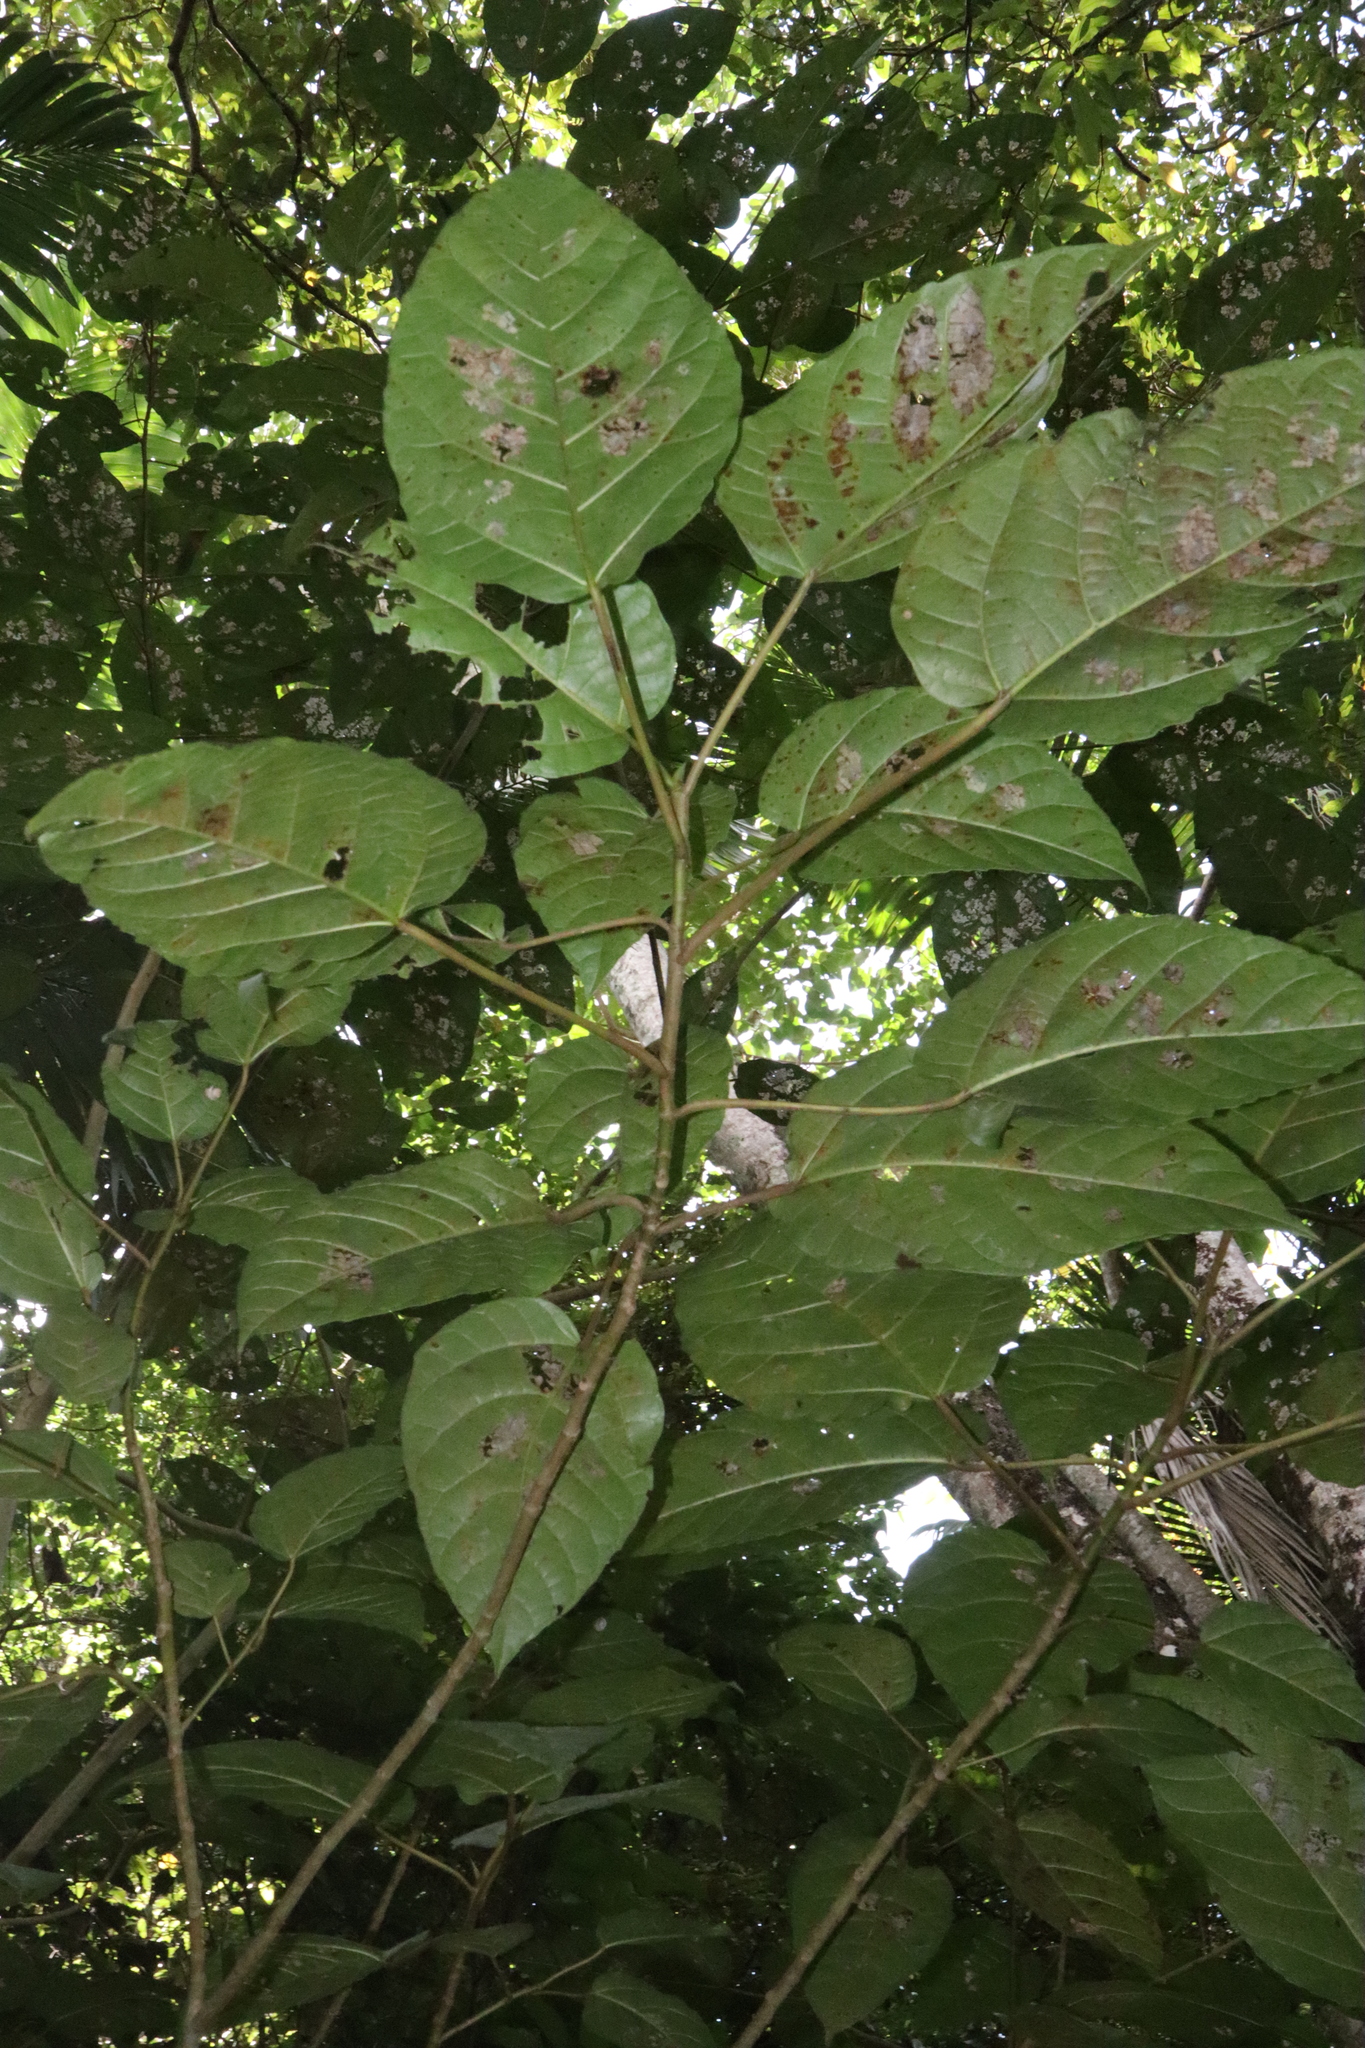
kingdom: Plantae
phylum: Tracheophyta
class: Magnoliopsida
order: Rosales
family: Moraceae
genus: Ficus
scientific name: Ficus variegata
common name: Variegated fig
